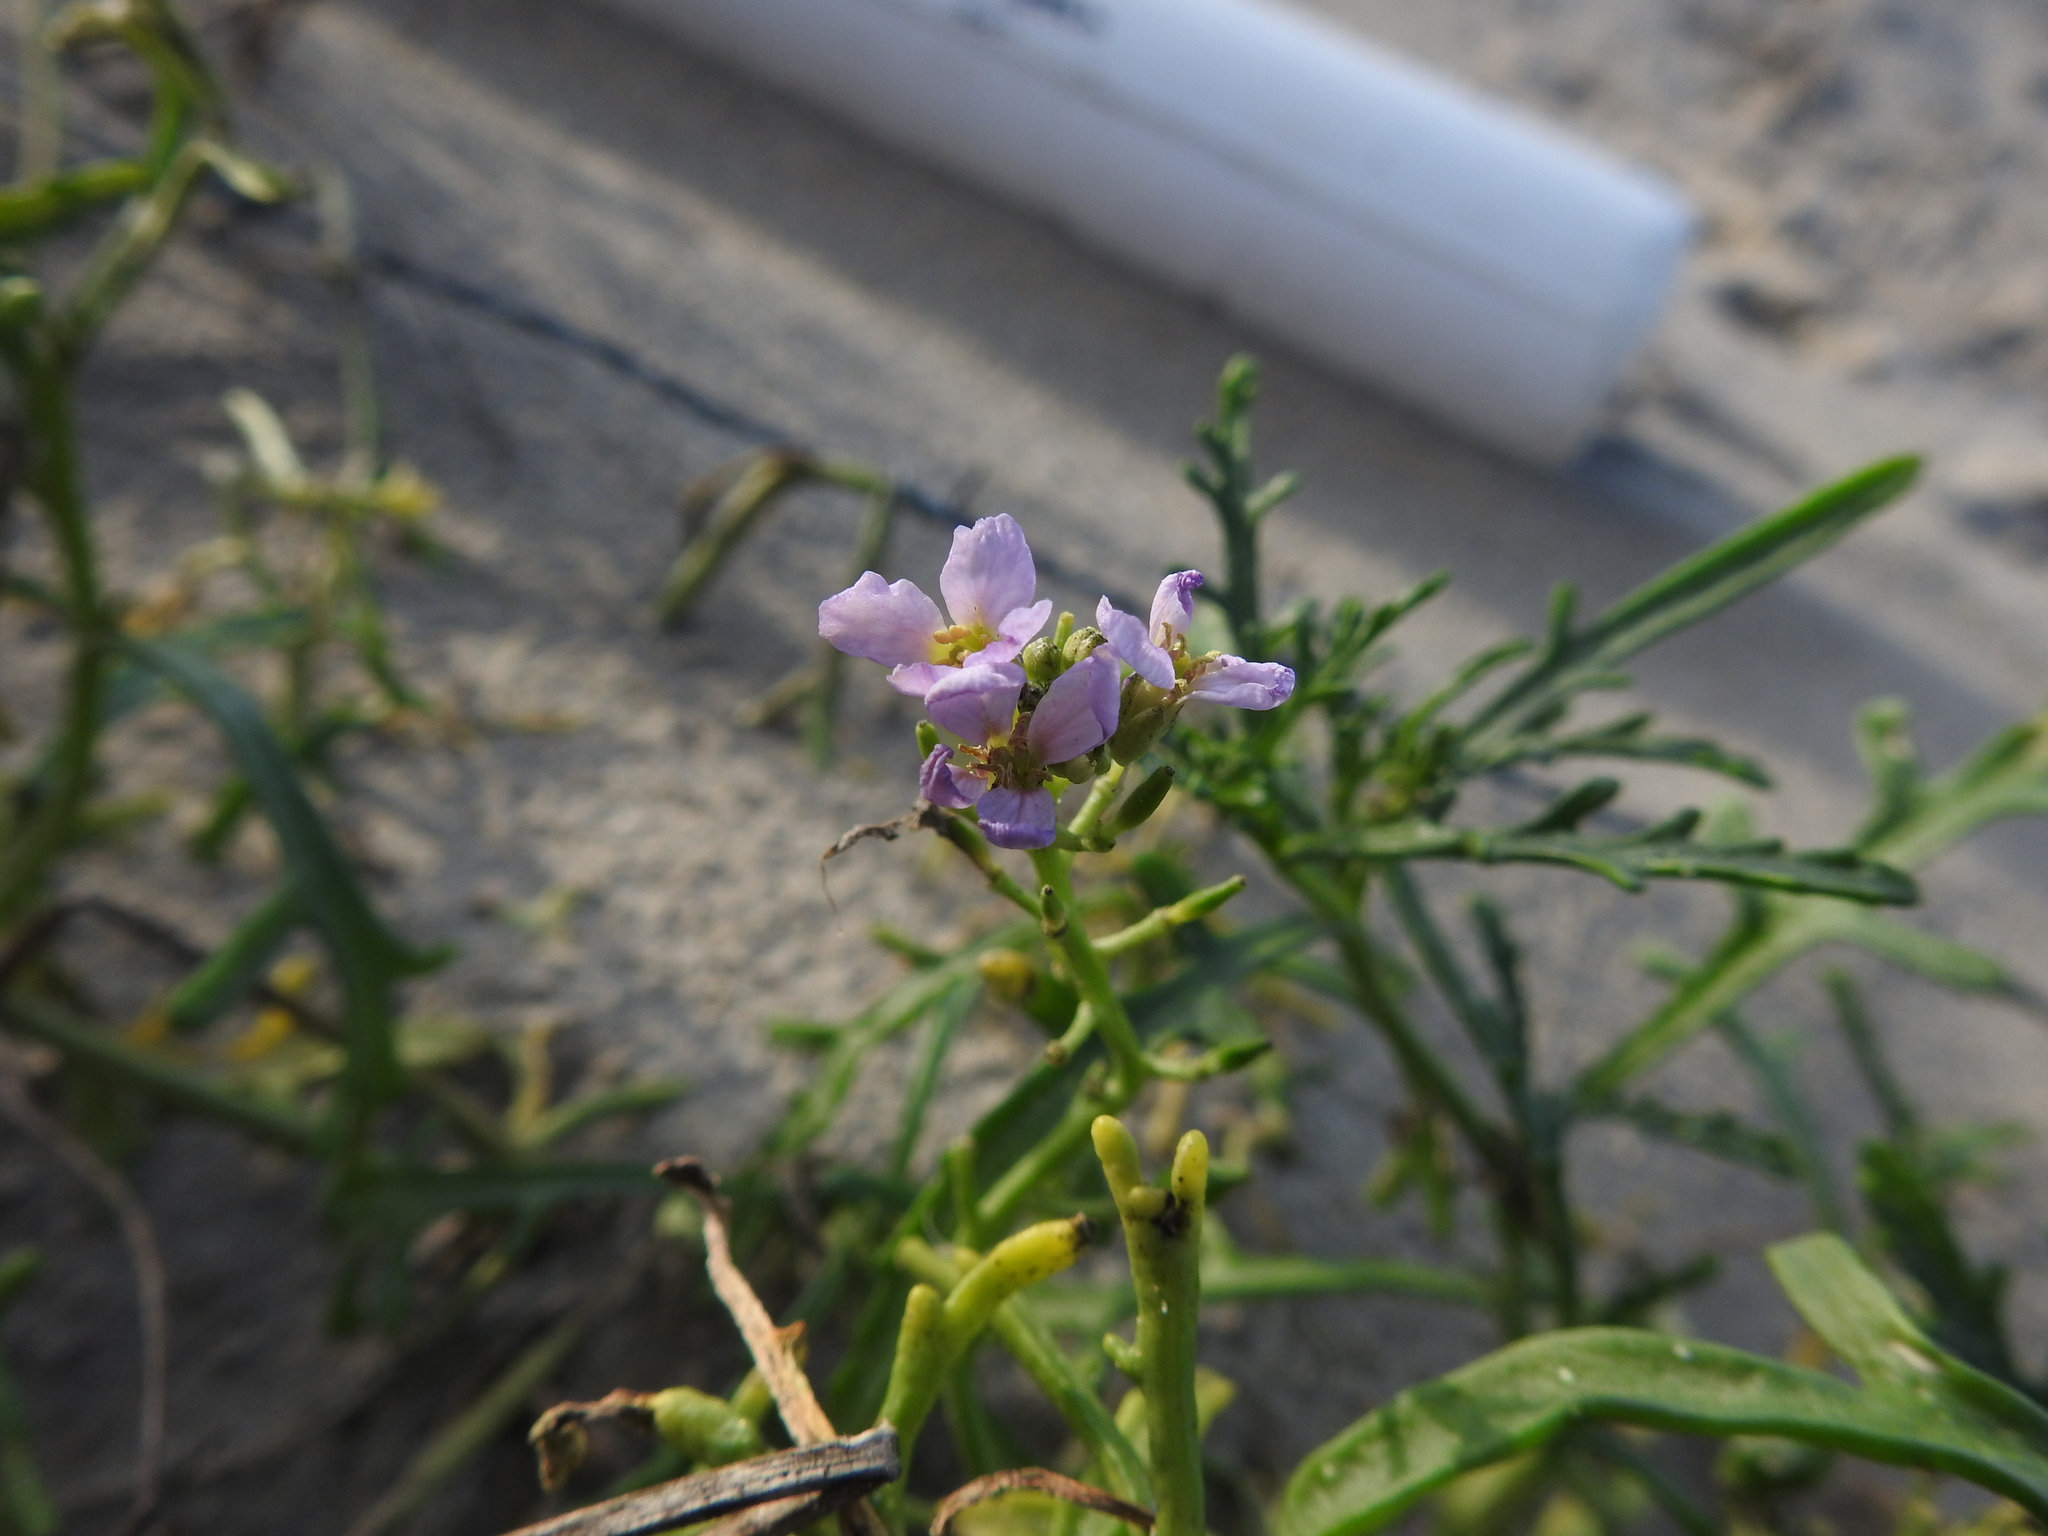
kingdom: Plantae
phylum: Tracheophyta
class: Magnoliopsida
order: Brassicales
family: Brassicaceae
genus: Cakile
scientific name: Cakile maritima
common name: Sea rocket
